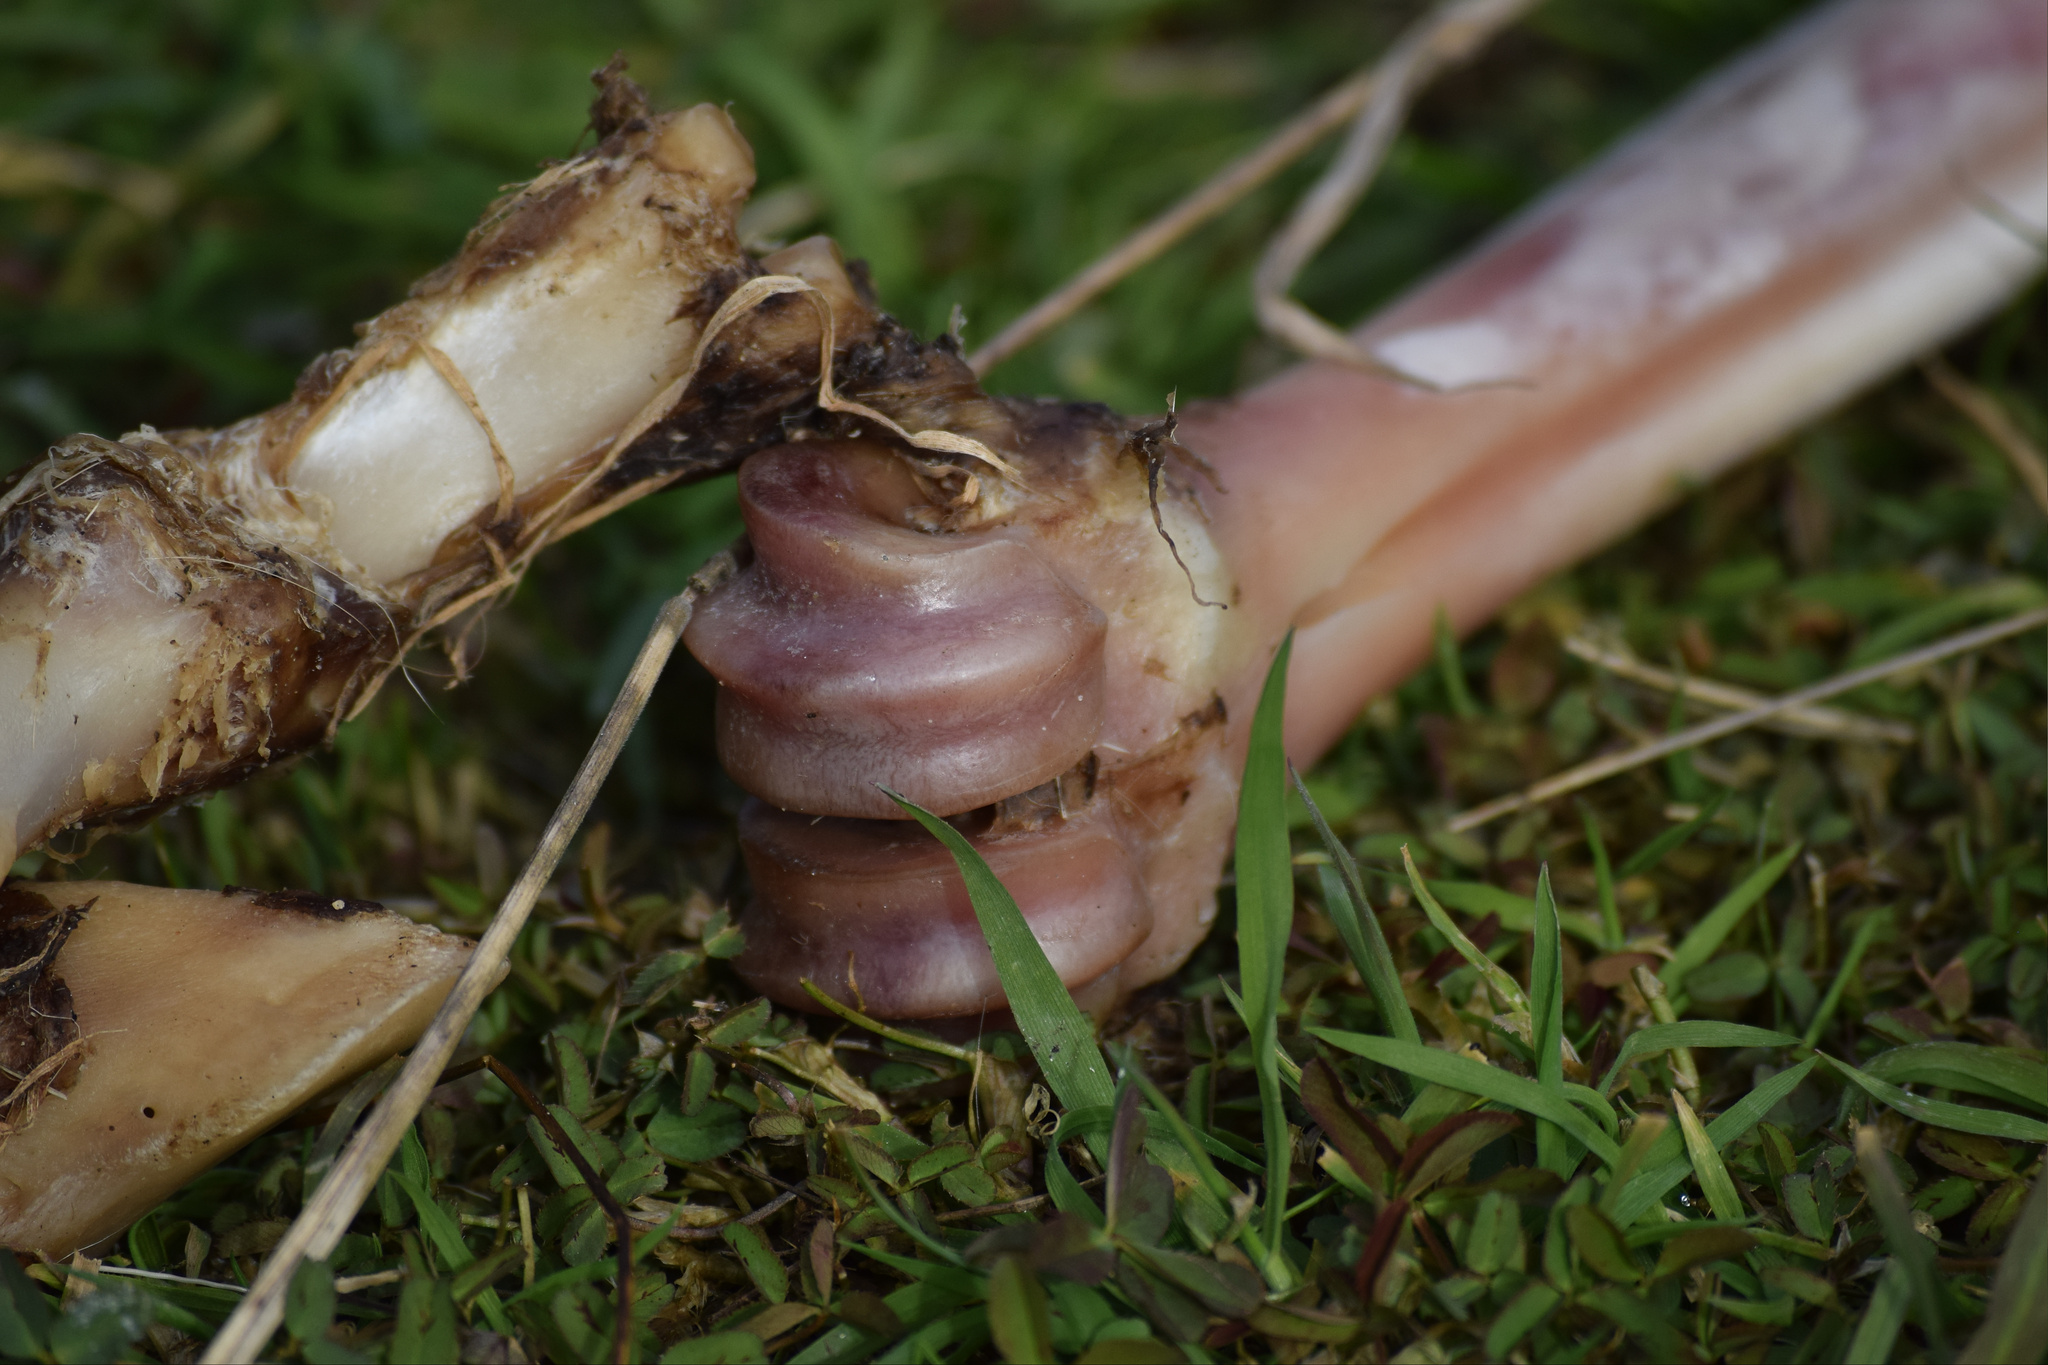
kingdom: Animalia
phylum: Chordata
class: Mammalia
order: Artiodactyla
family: Cervidae
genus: Cervus
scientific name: Cervus elaphus
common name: Red deer
